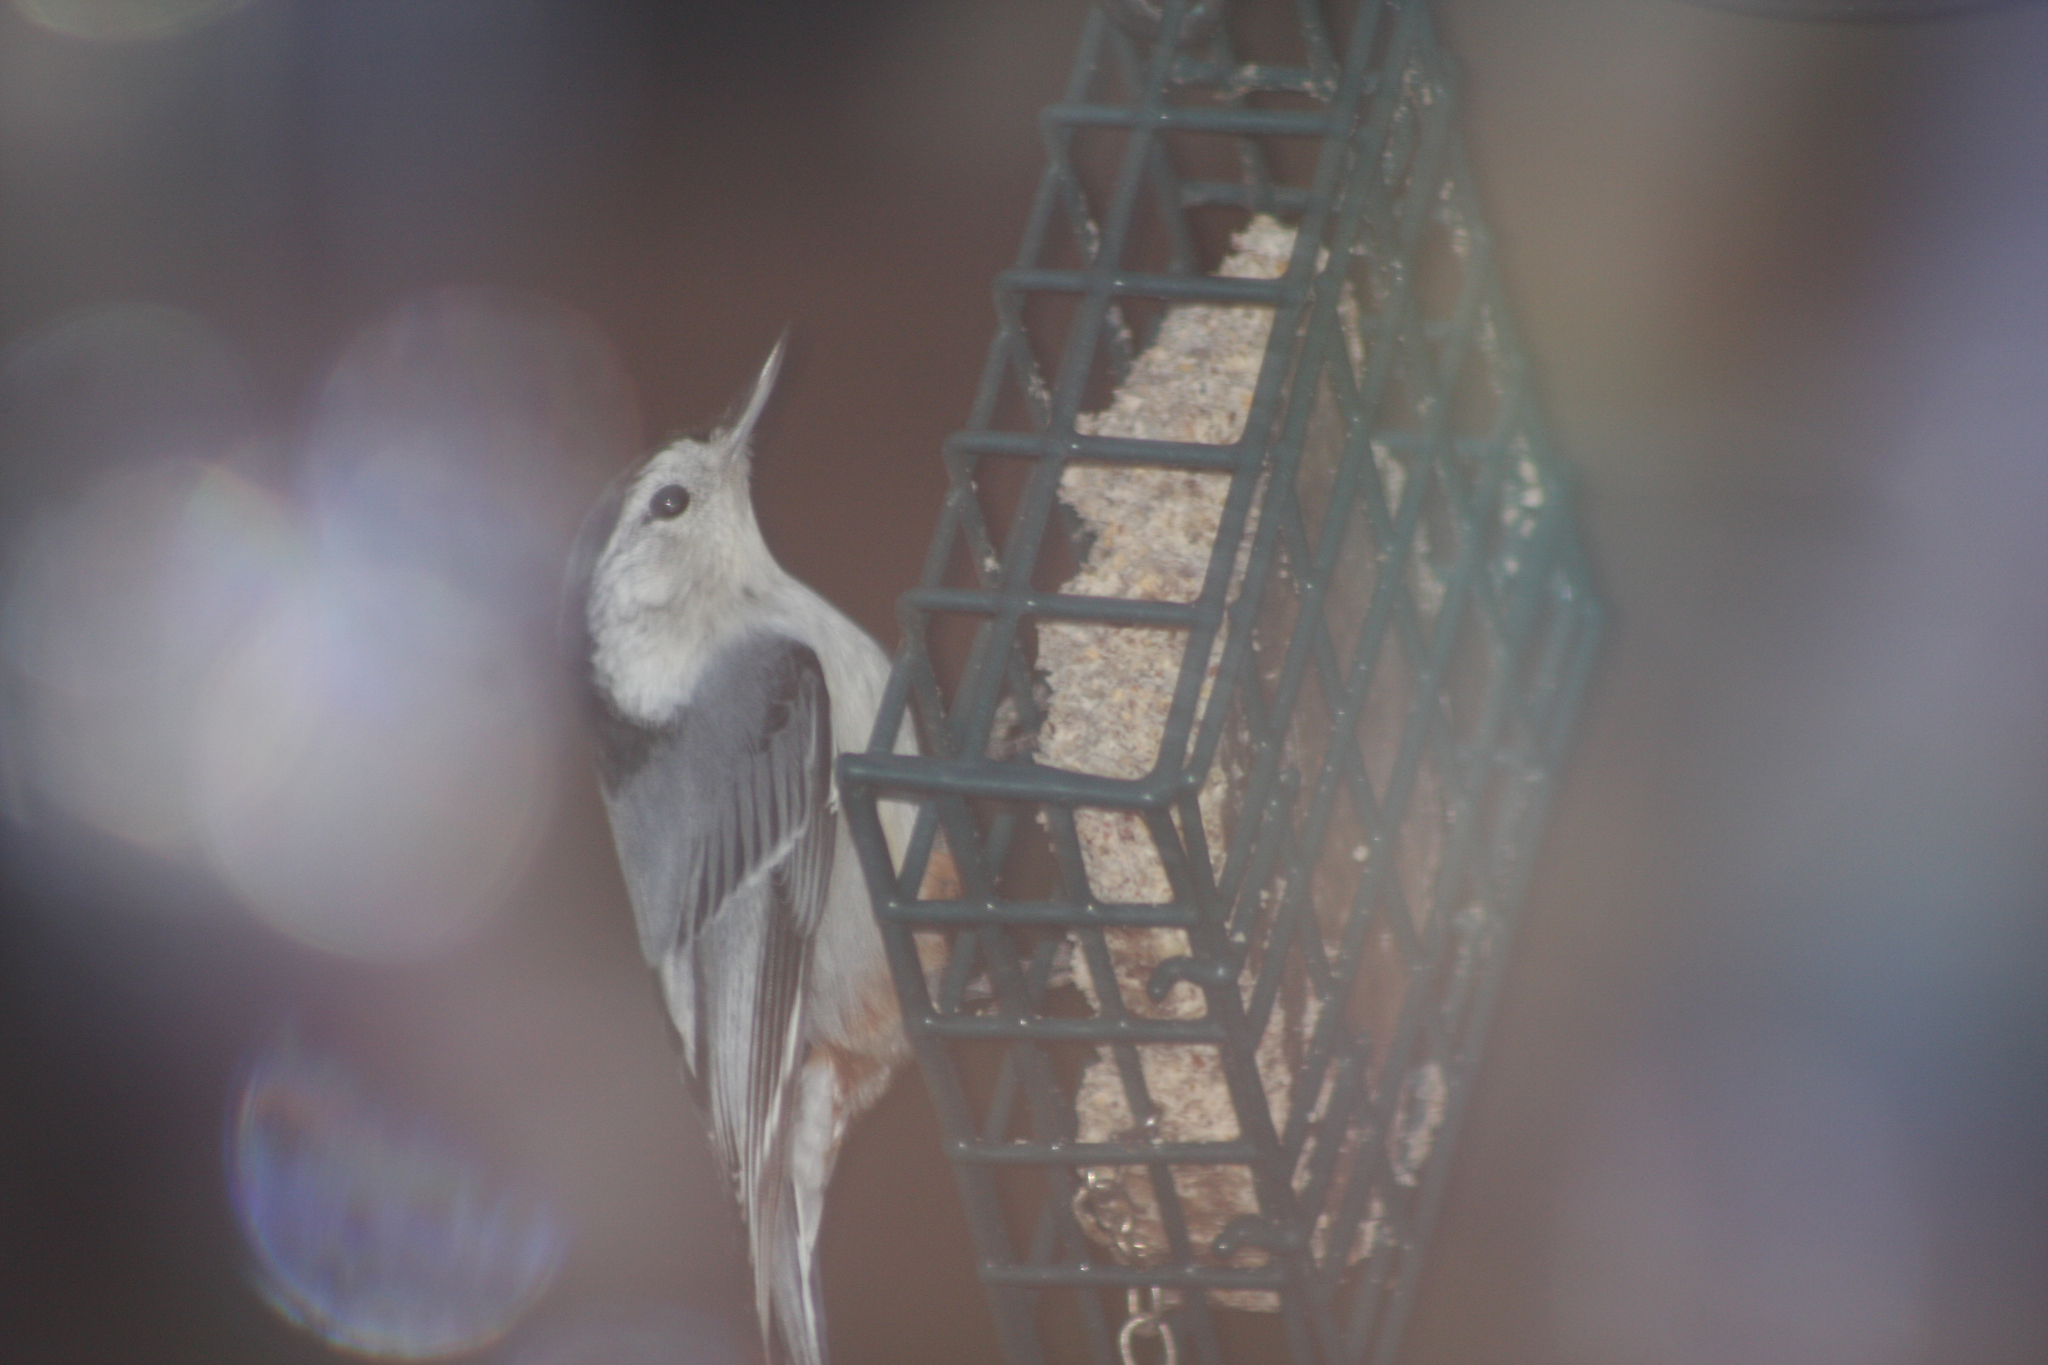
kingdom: Animalia
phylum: Chordata
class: Aves
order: Passeriformes
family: Sittidae
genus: Sitta
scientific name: Sitta carolinensis
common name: White-breasted nuthatch
